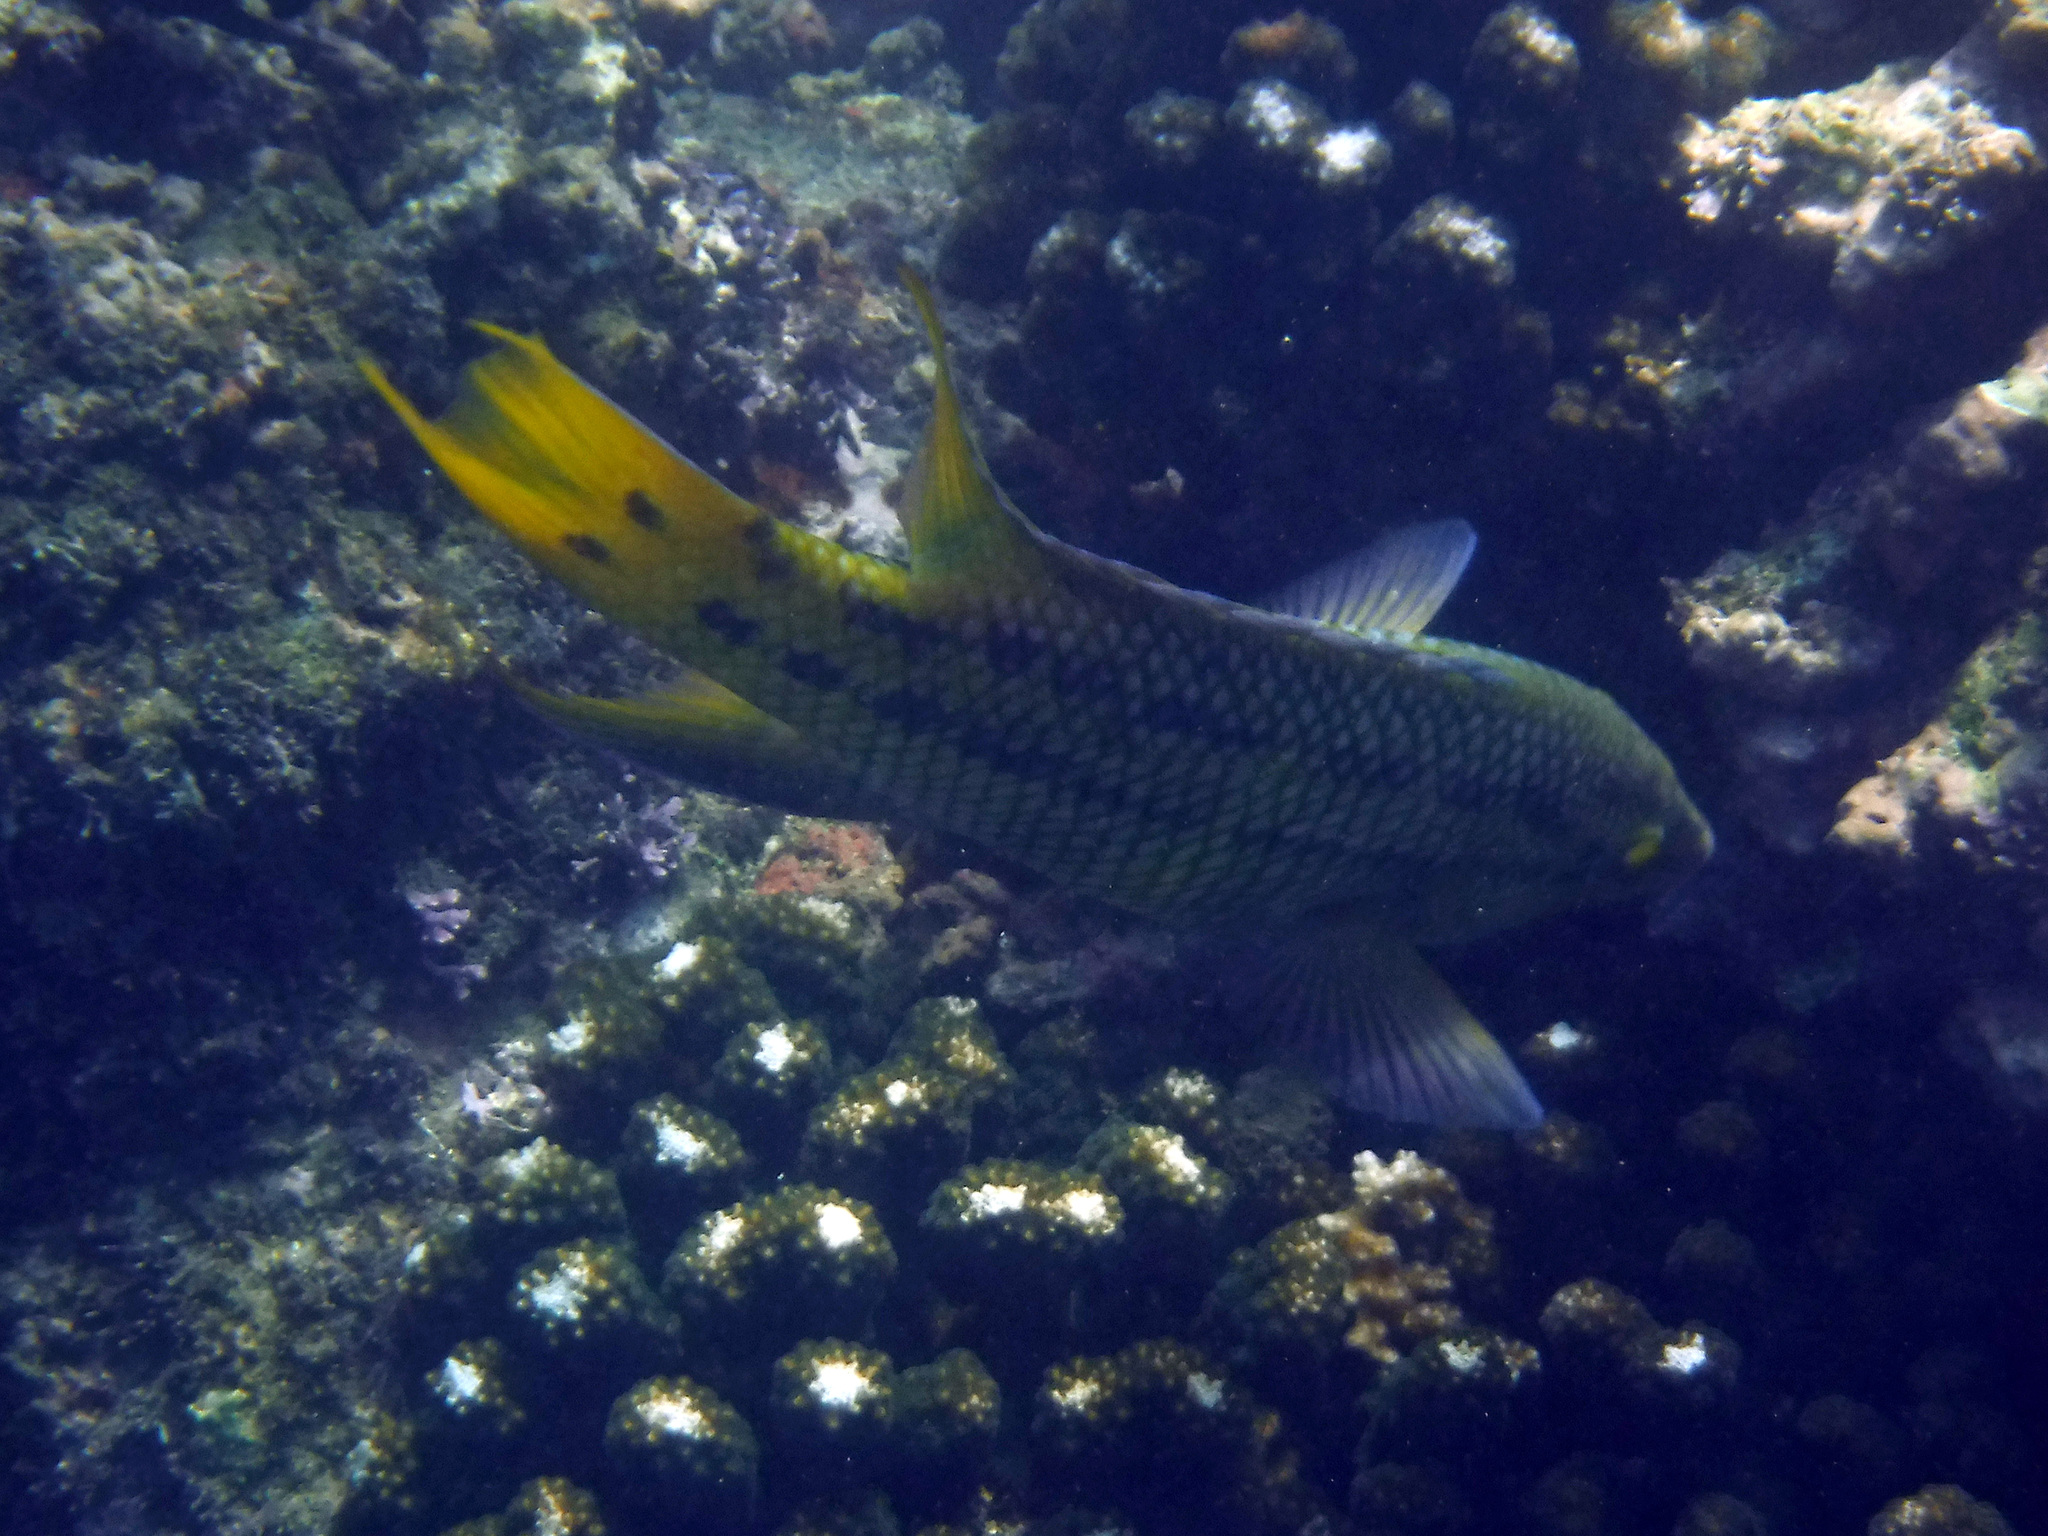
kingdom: Animalia
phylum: Chordata
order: Perciformes
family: Labridae
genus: Bodianus
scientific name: Bodianus diplotaenia
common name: Mexican hogfish
